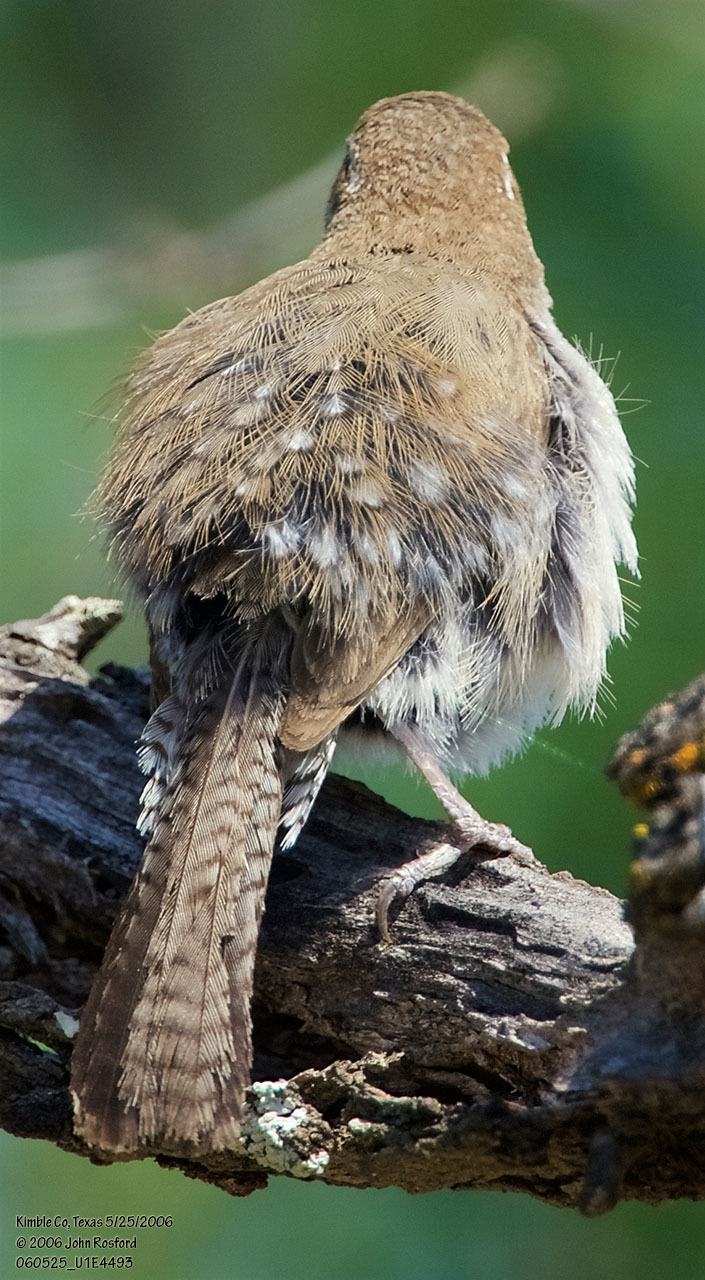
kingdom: Animalia
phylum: Chordata
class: Aves
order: Passeriformes
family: Troglodytidae
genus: Thryomanes
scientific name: Thryomanes bewickii
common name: Bewick's wren
